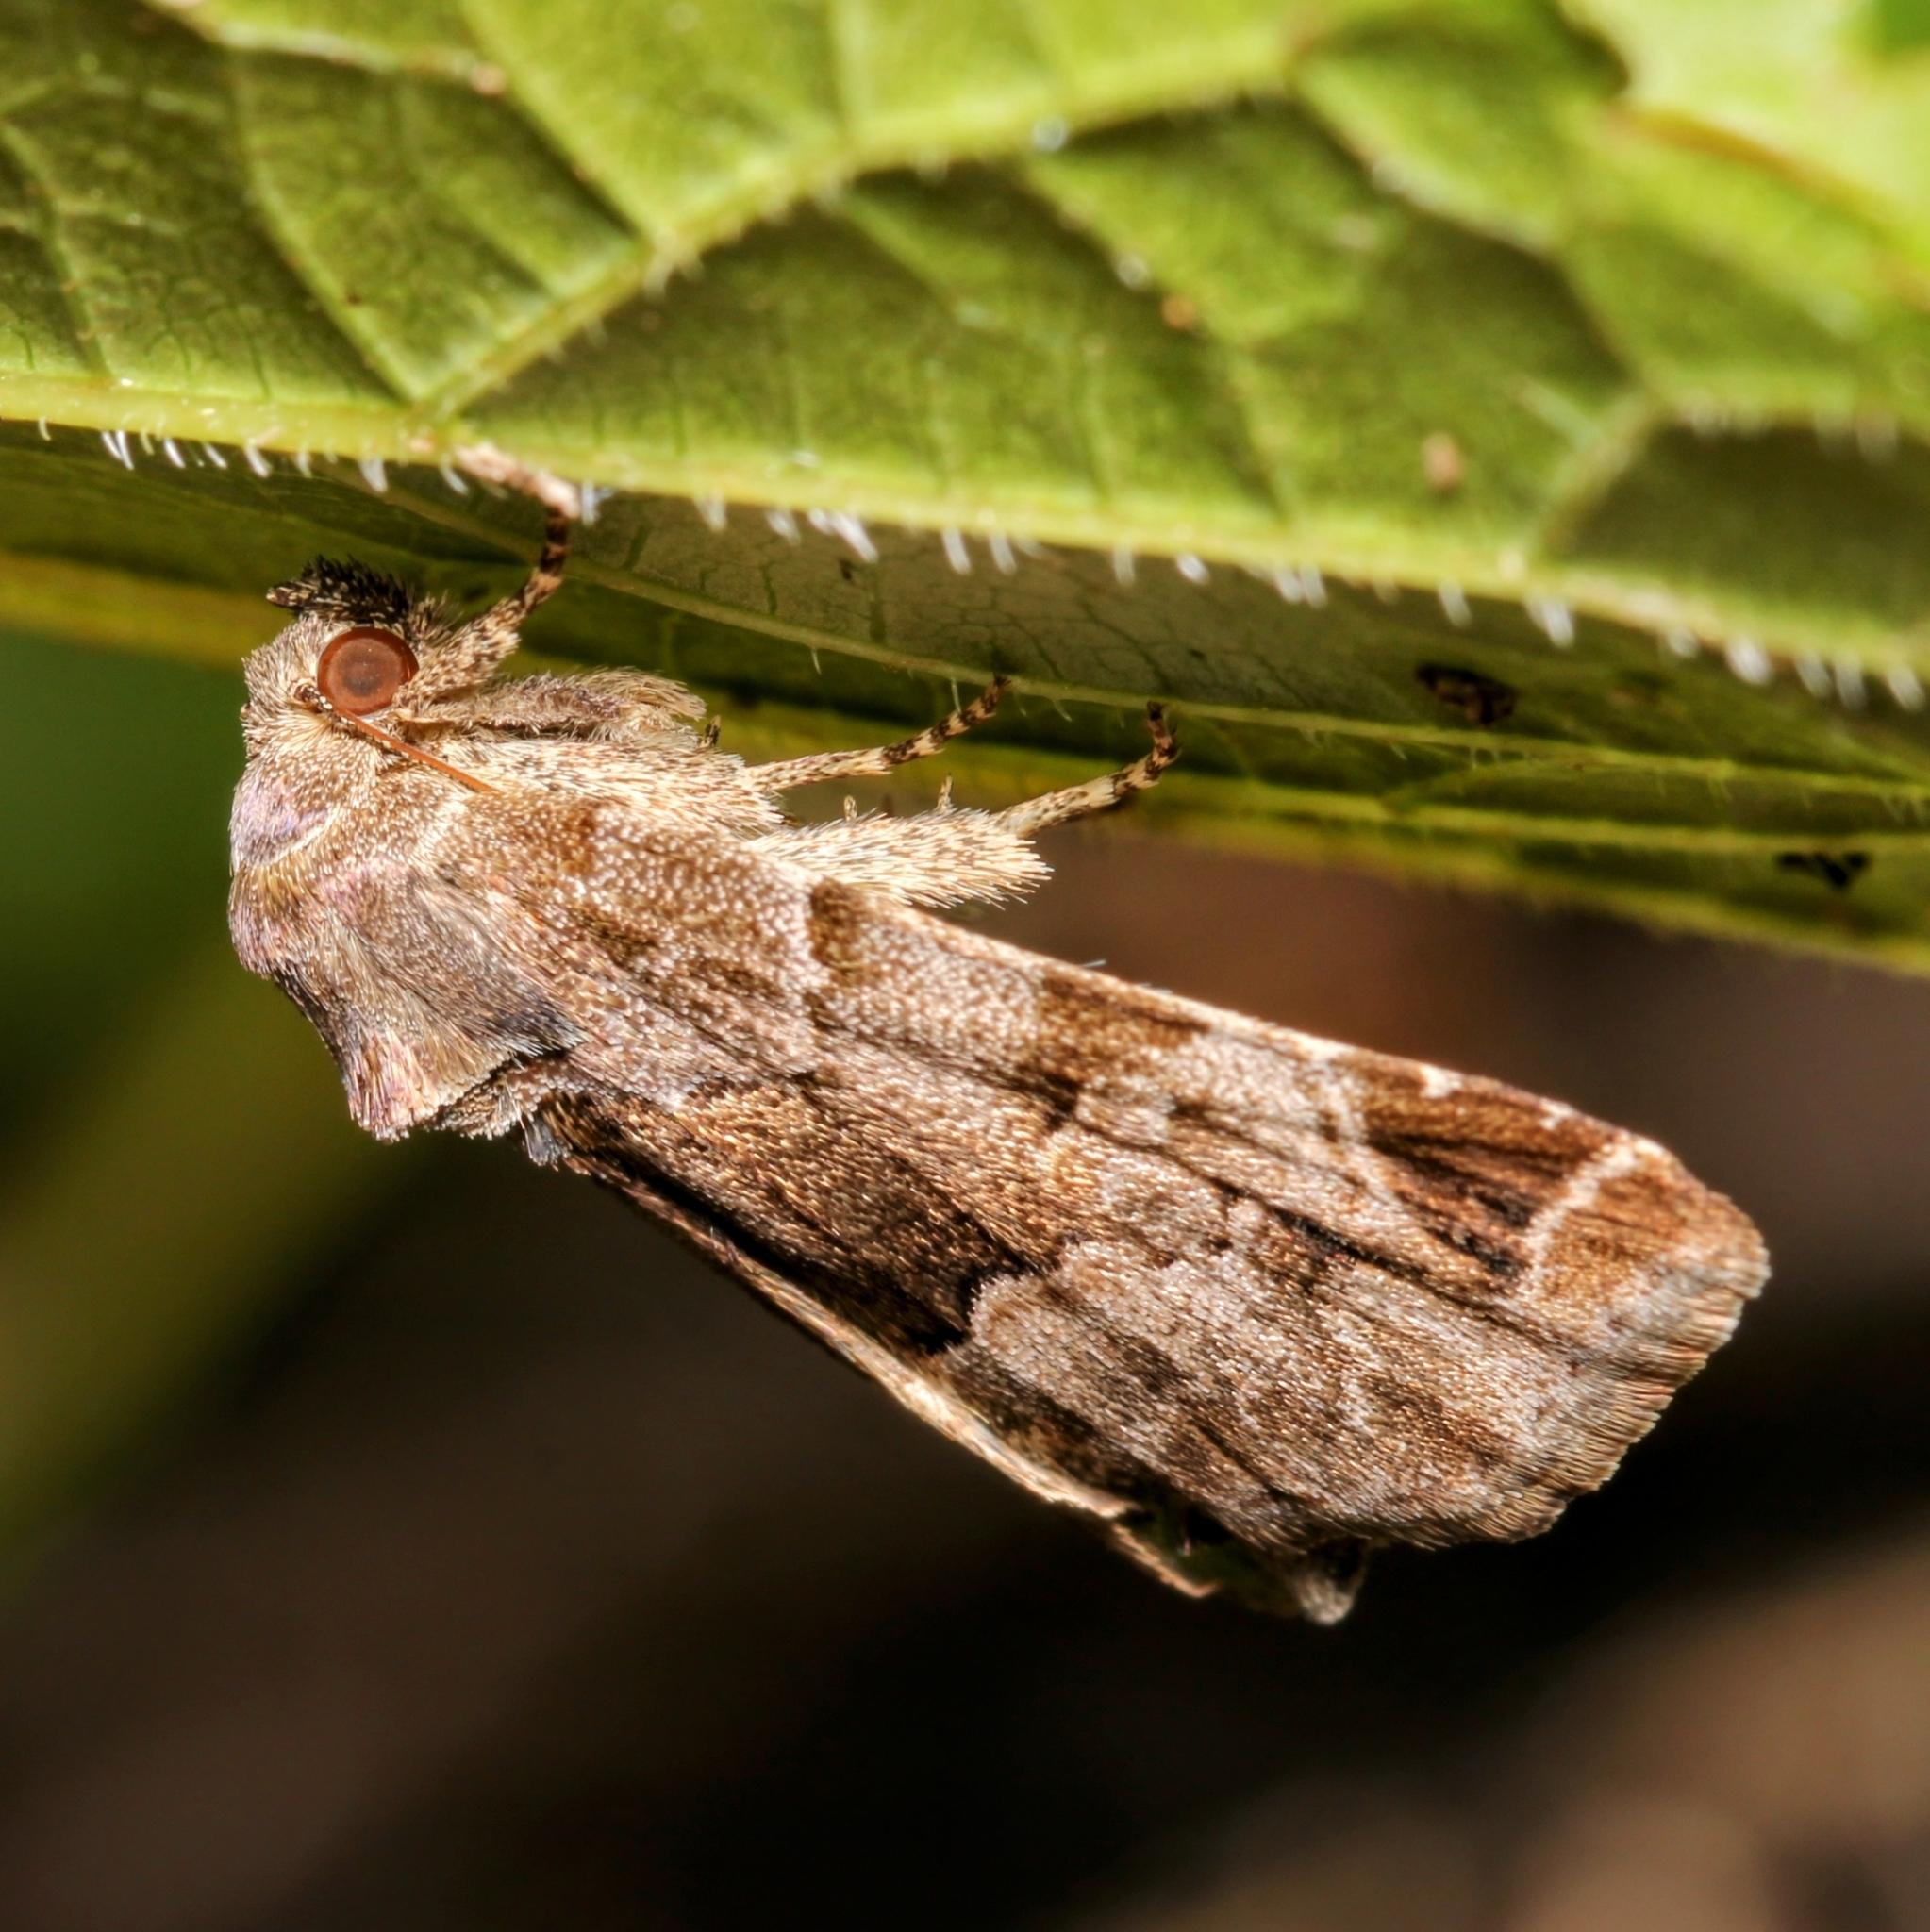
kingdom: Animalia
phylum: Arthropoda
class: Insecta
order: Lepidoptera
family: Noctuidae
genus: Niphonyx
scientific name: Niphonyx segregata
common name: Hops angleshade moth
